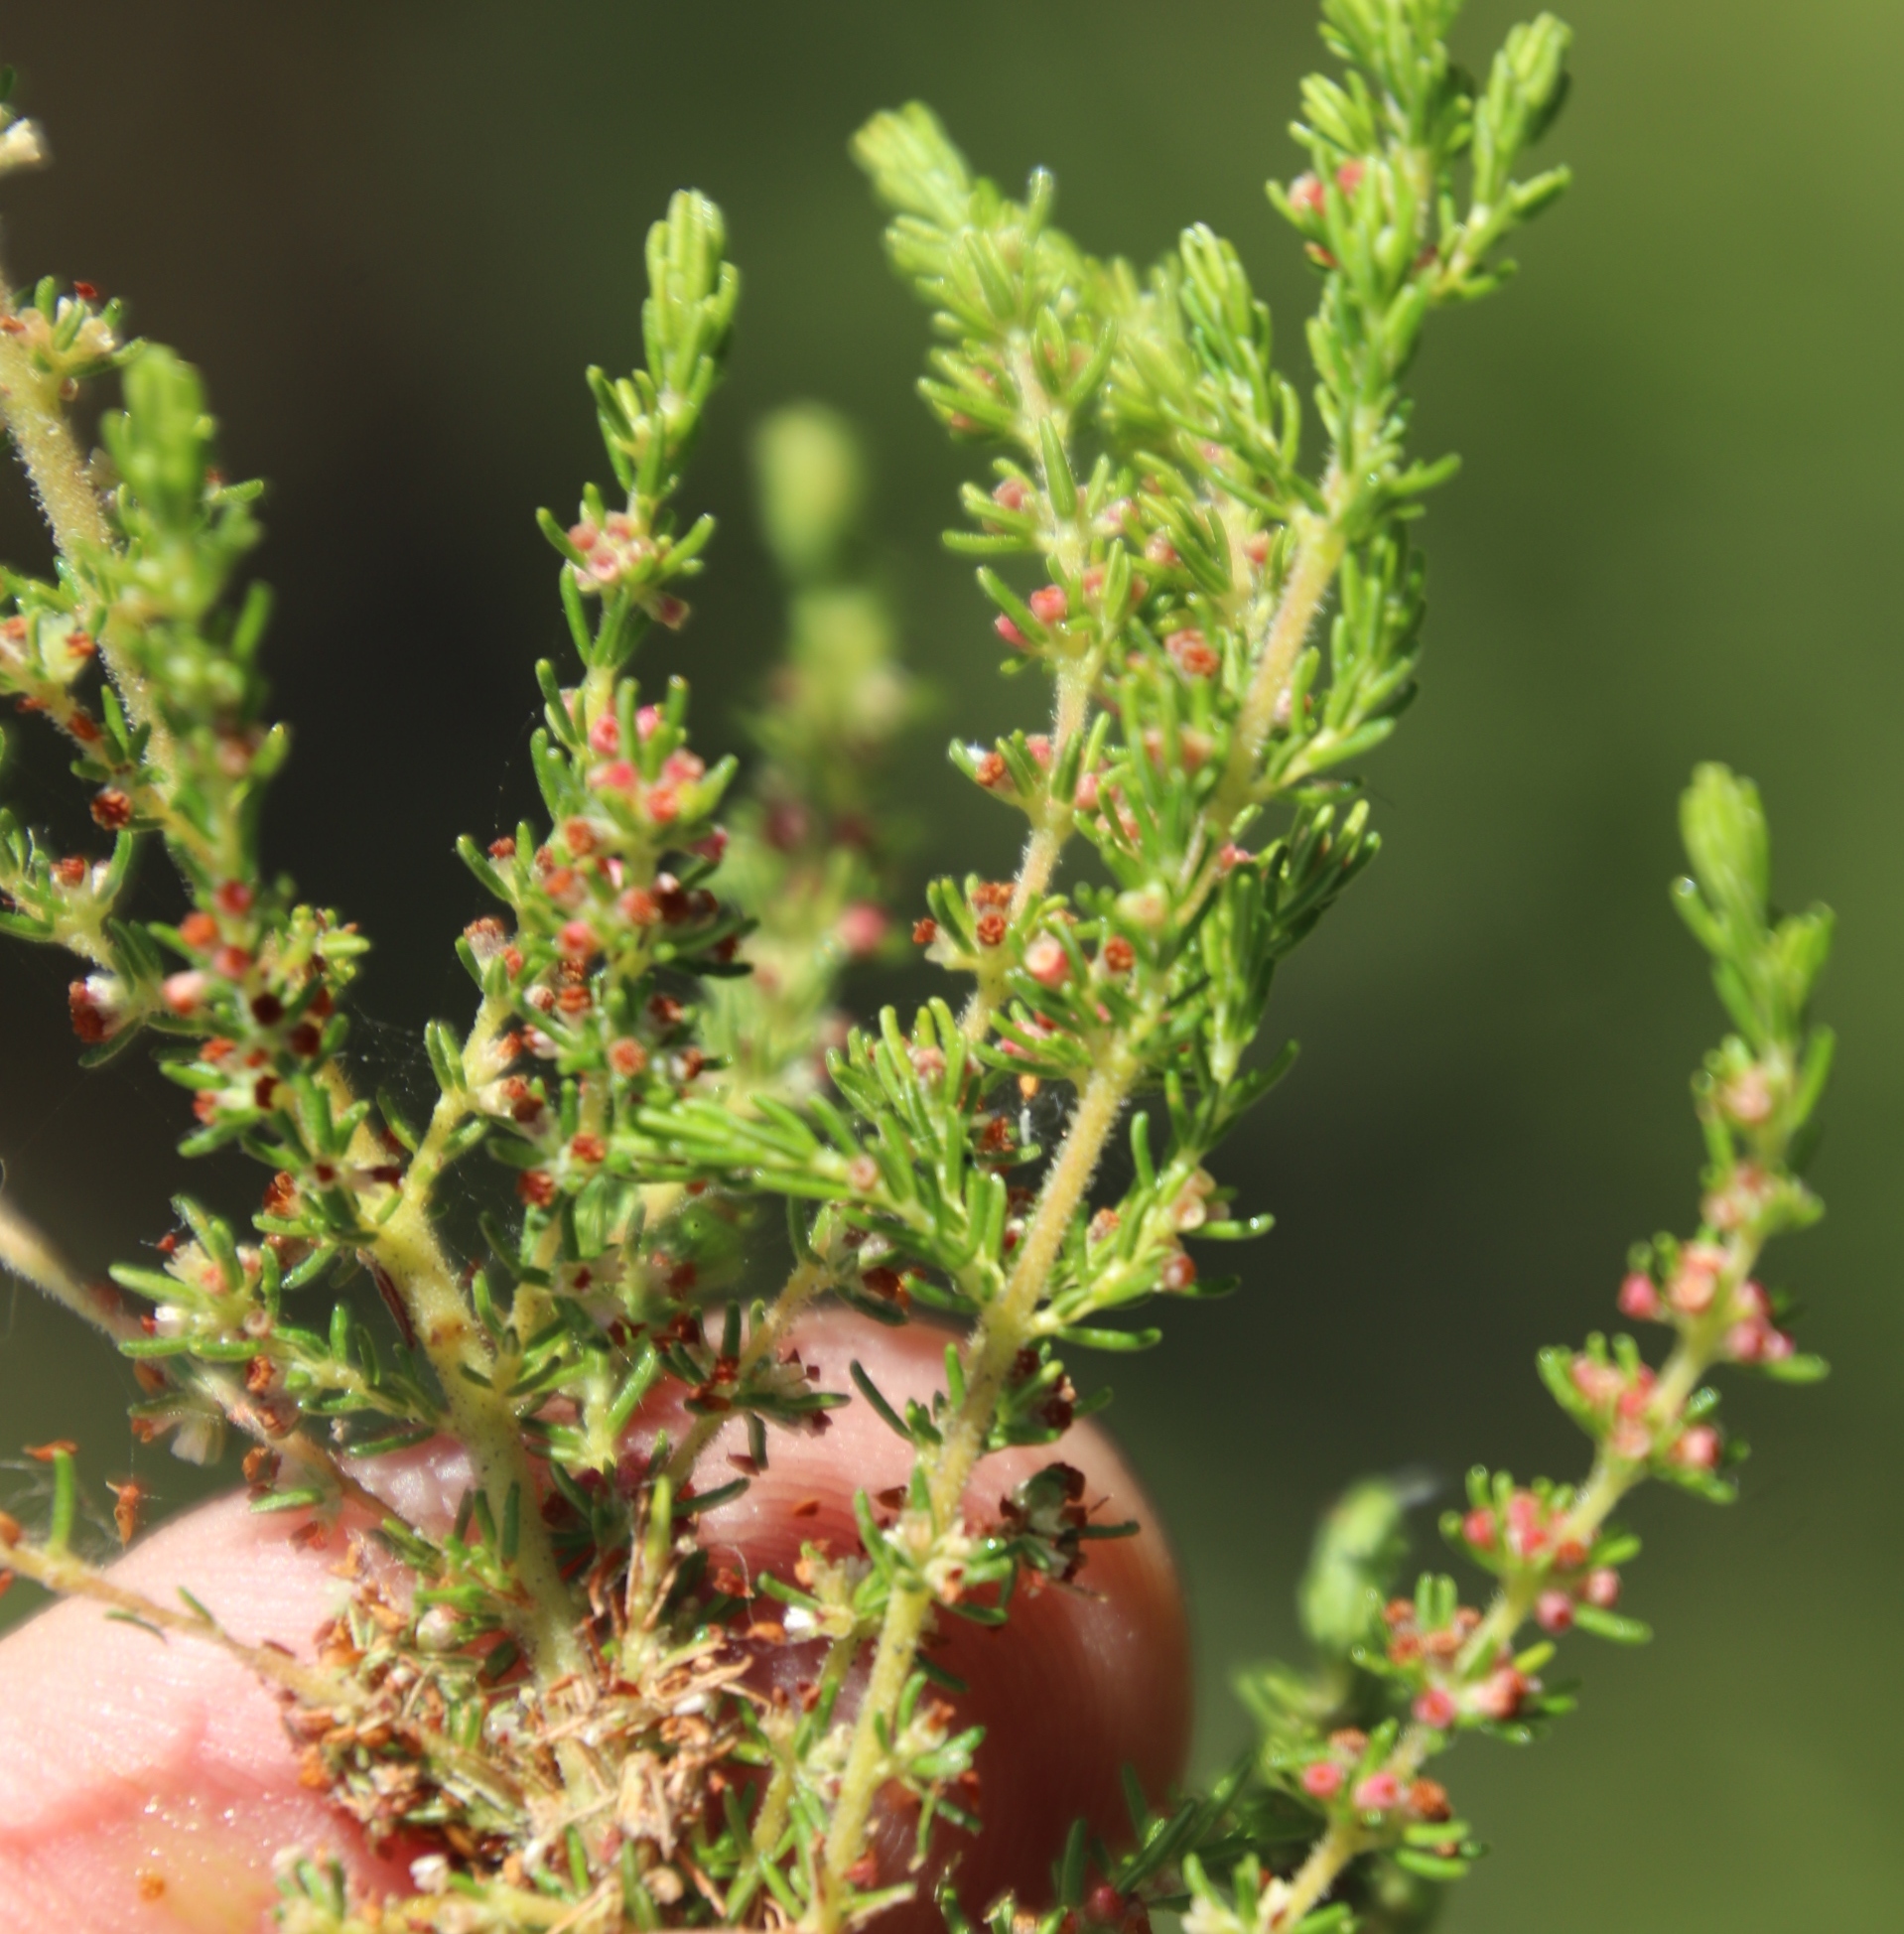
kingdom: Plantae
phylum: Tracheophyta
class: Magnoliopsida
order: Ericales
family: Ericaceae
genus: Erica
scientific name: Erica muscosa
